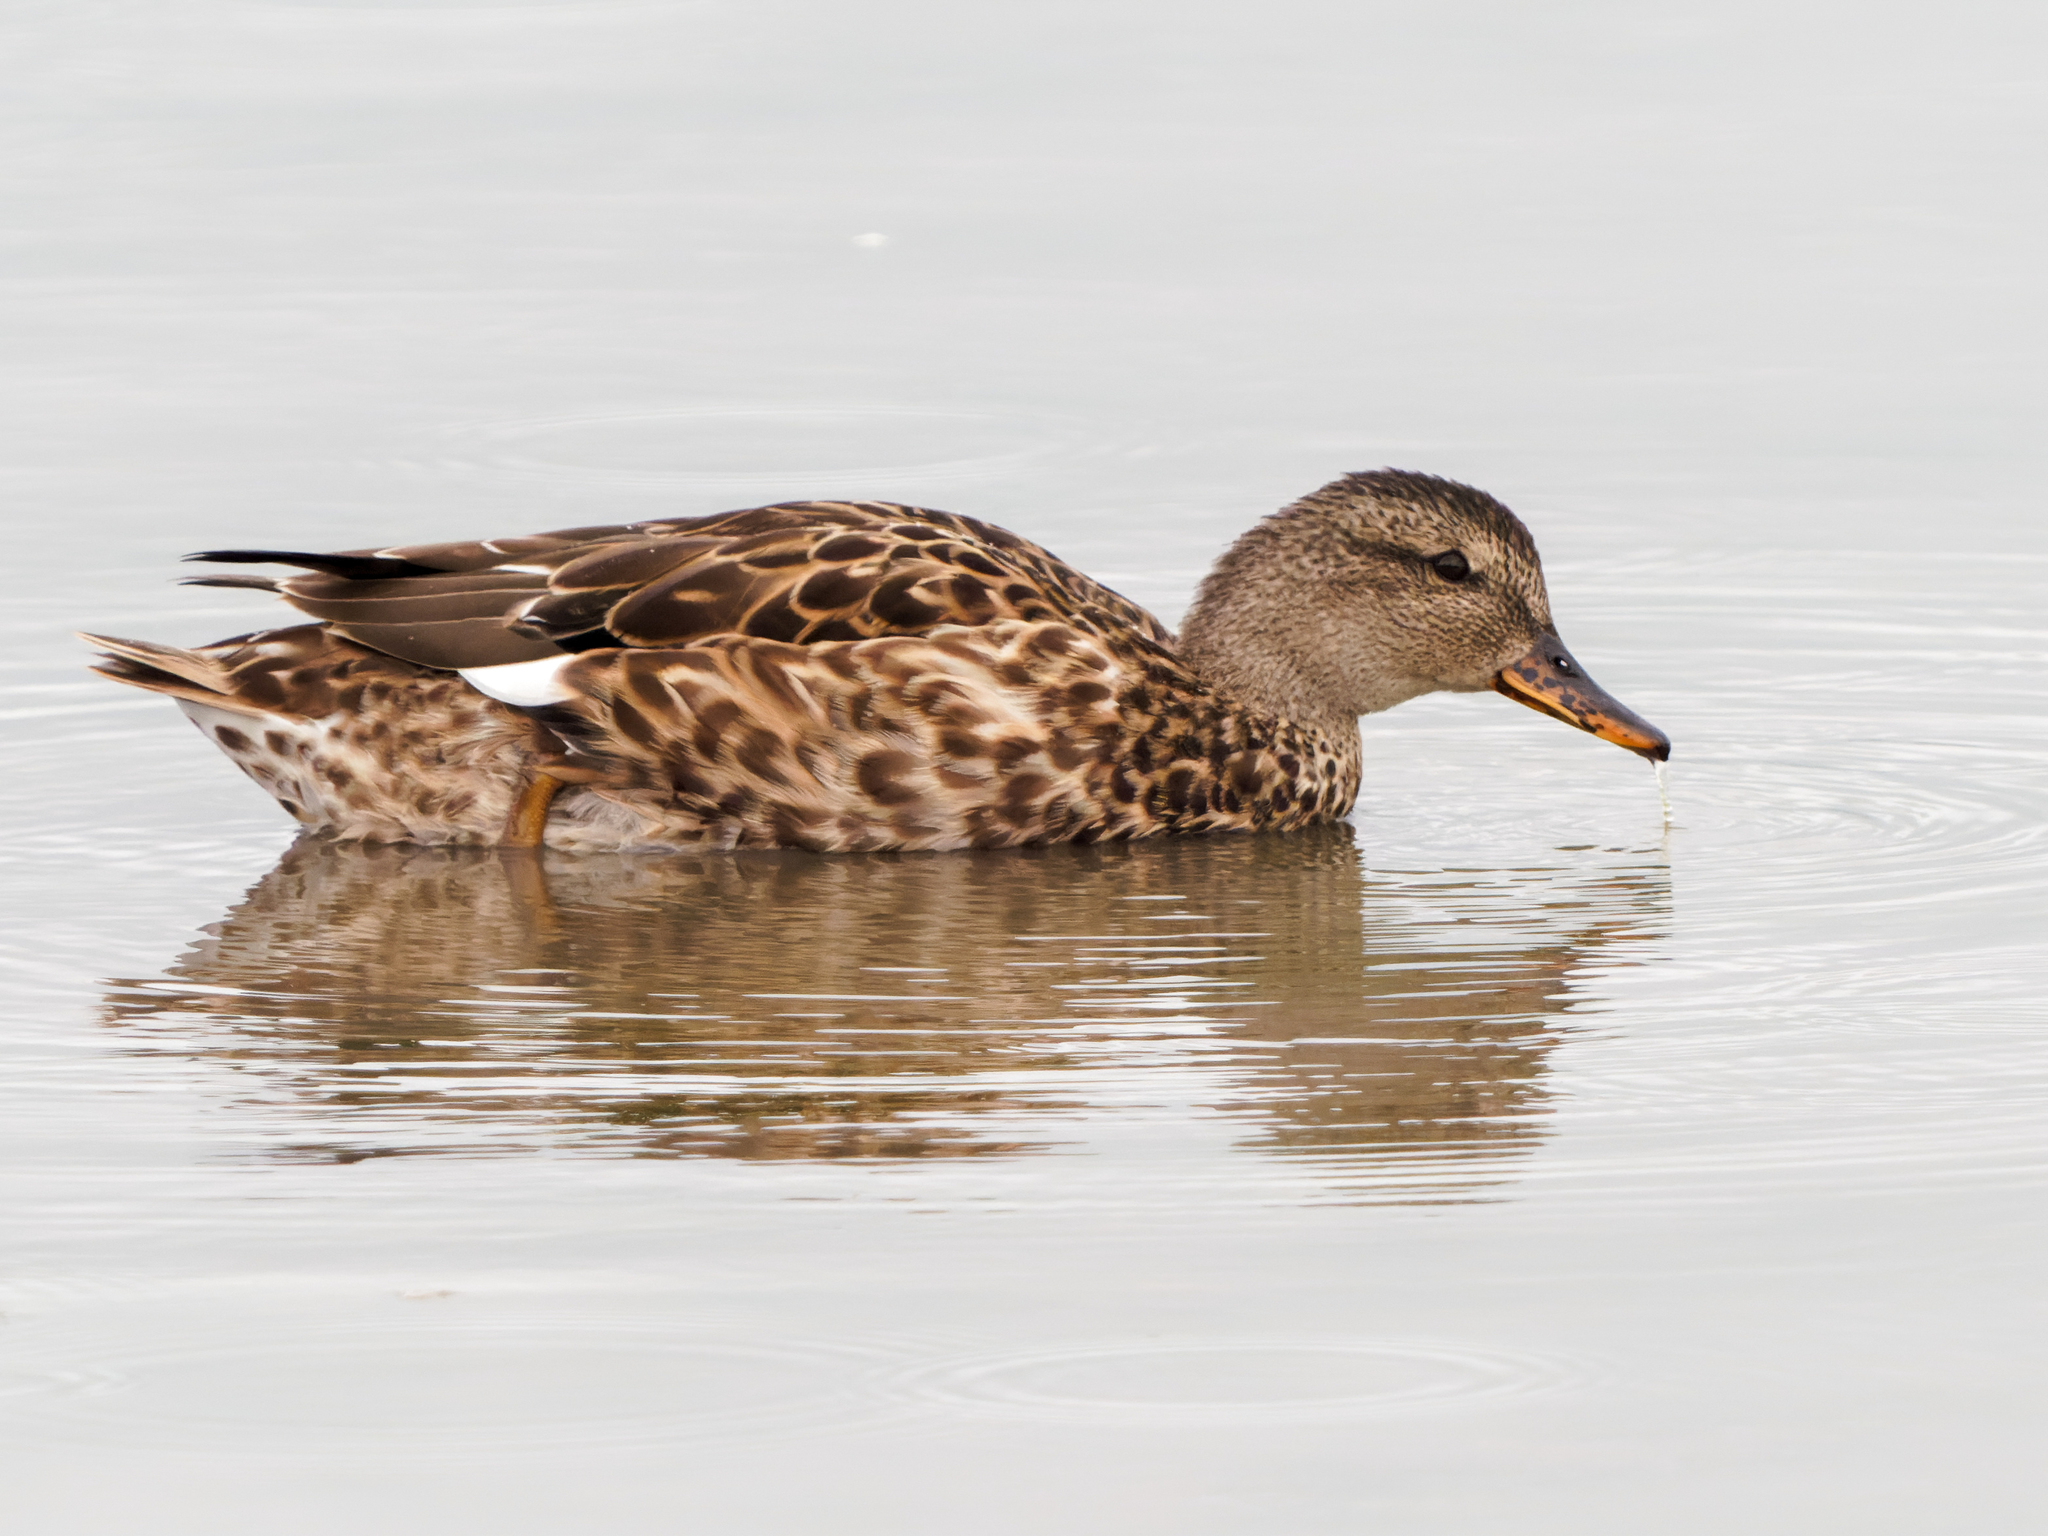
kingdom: Animalia
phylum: Chordata
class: Aves
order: Anseriformes
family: Anatidae
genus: Mareca
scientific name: Mareca strepera
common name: Gadwall
